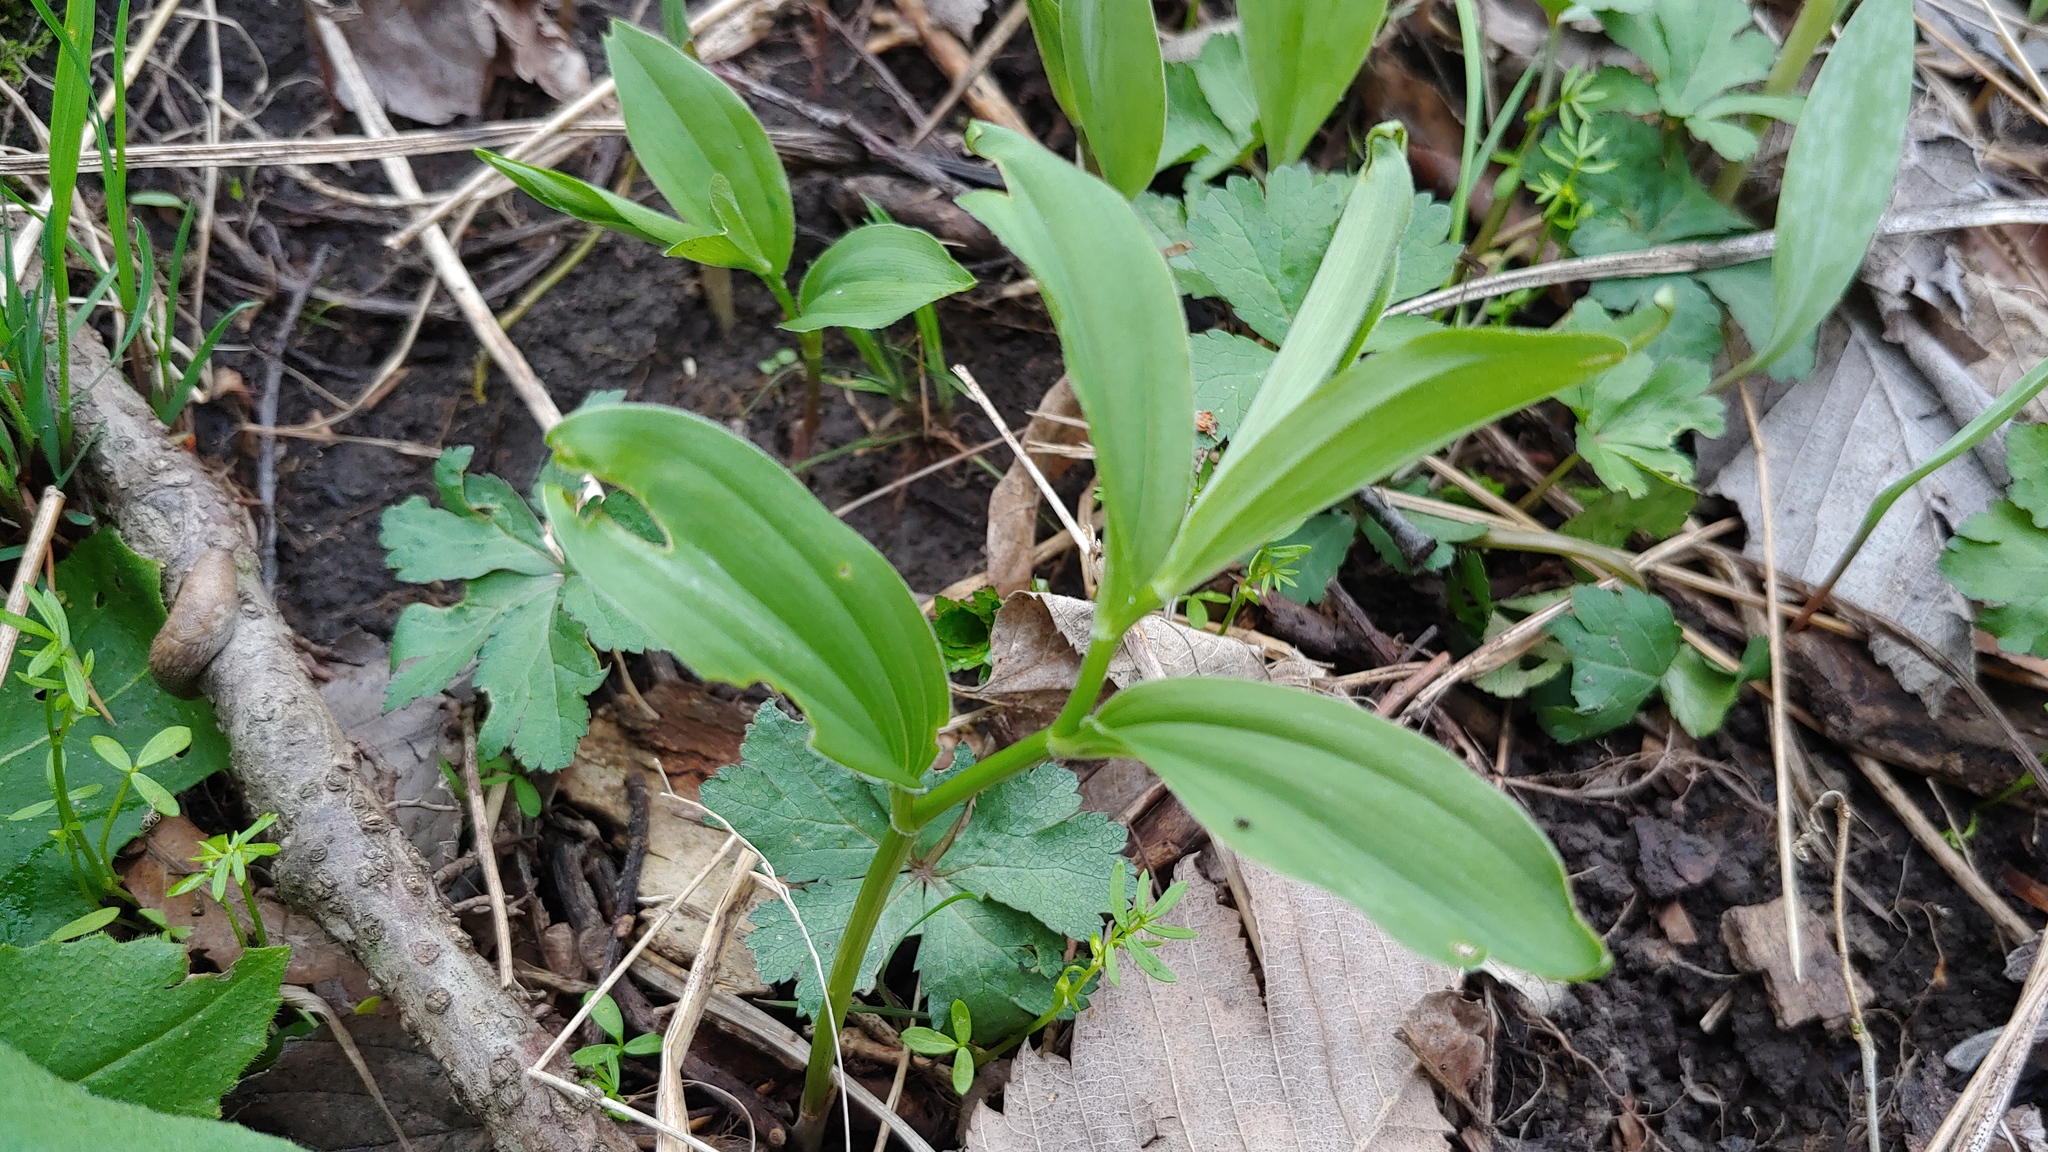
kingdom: Plantae
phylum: Tracheophyta
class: Liliopsida
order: Asparagales
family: Asparagaceae
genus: Maianthemum
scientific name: Maianthemum racemosum
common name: False spikenard
